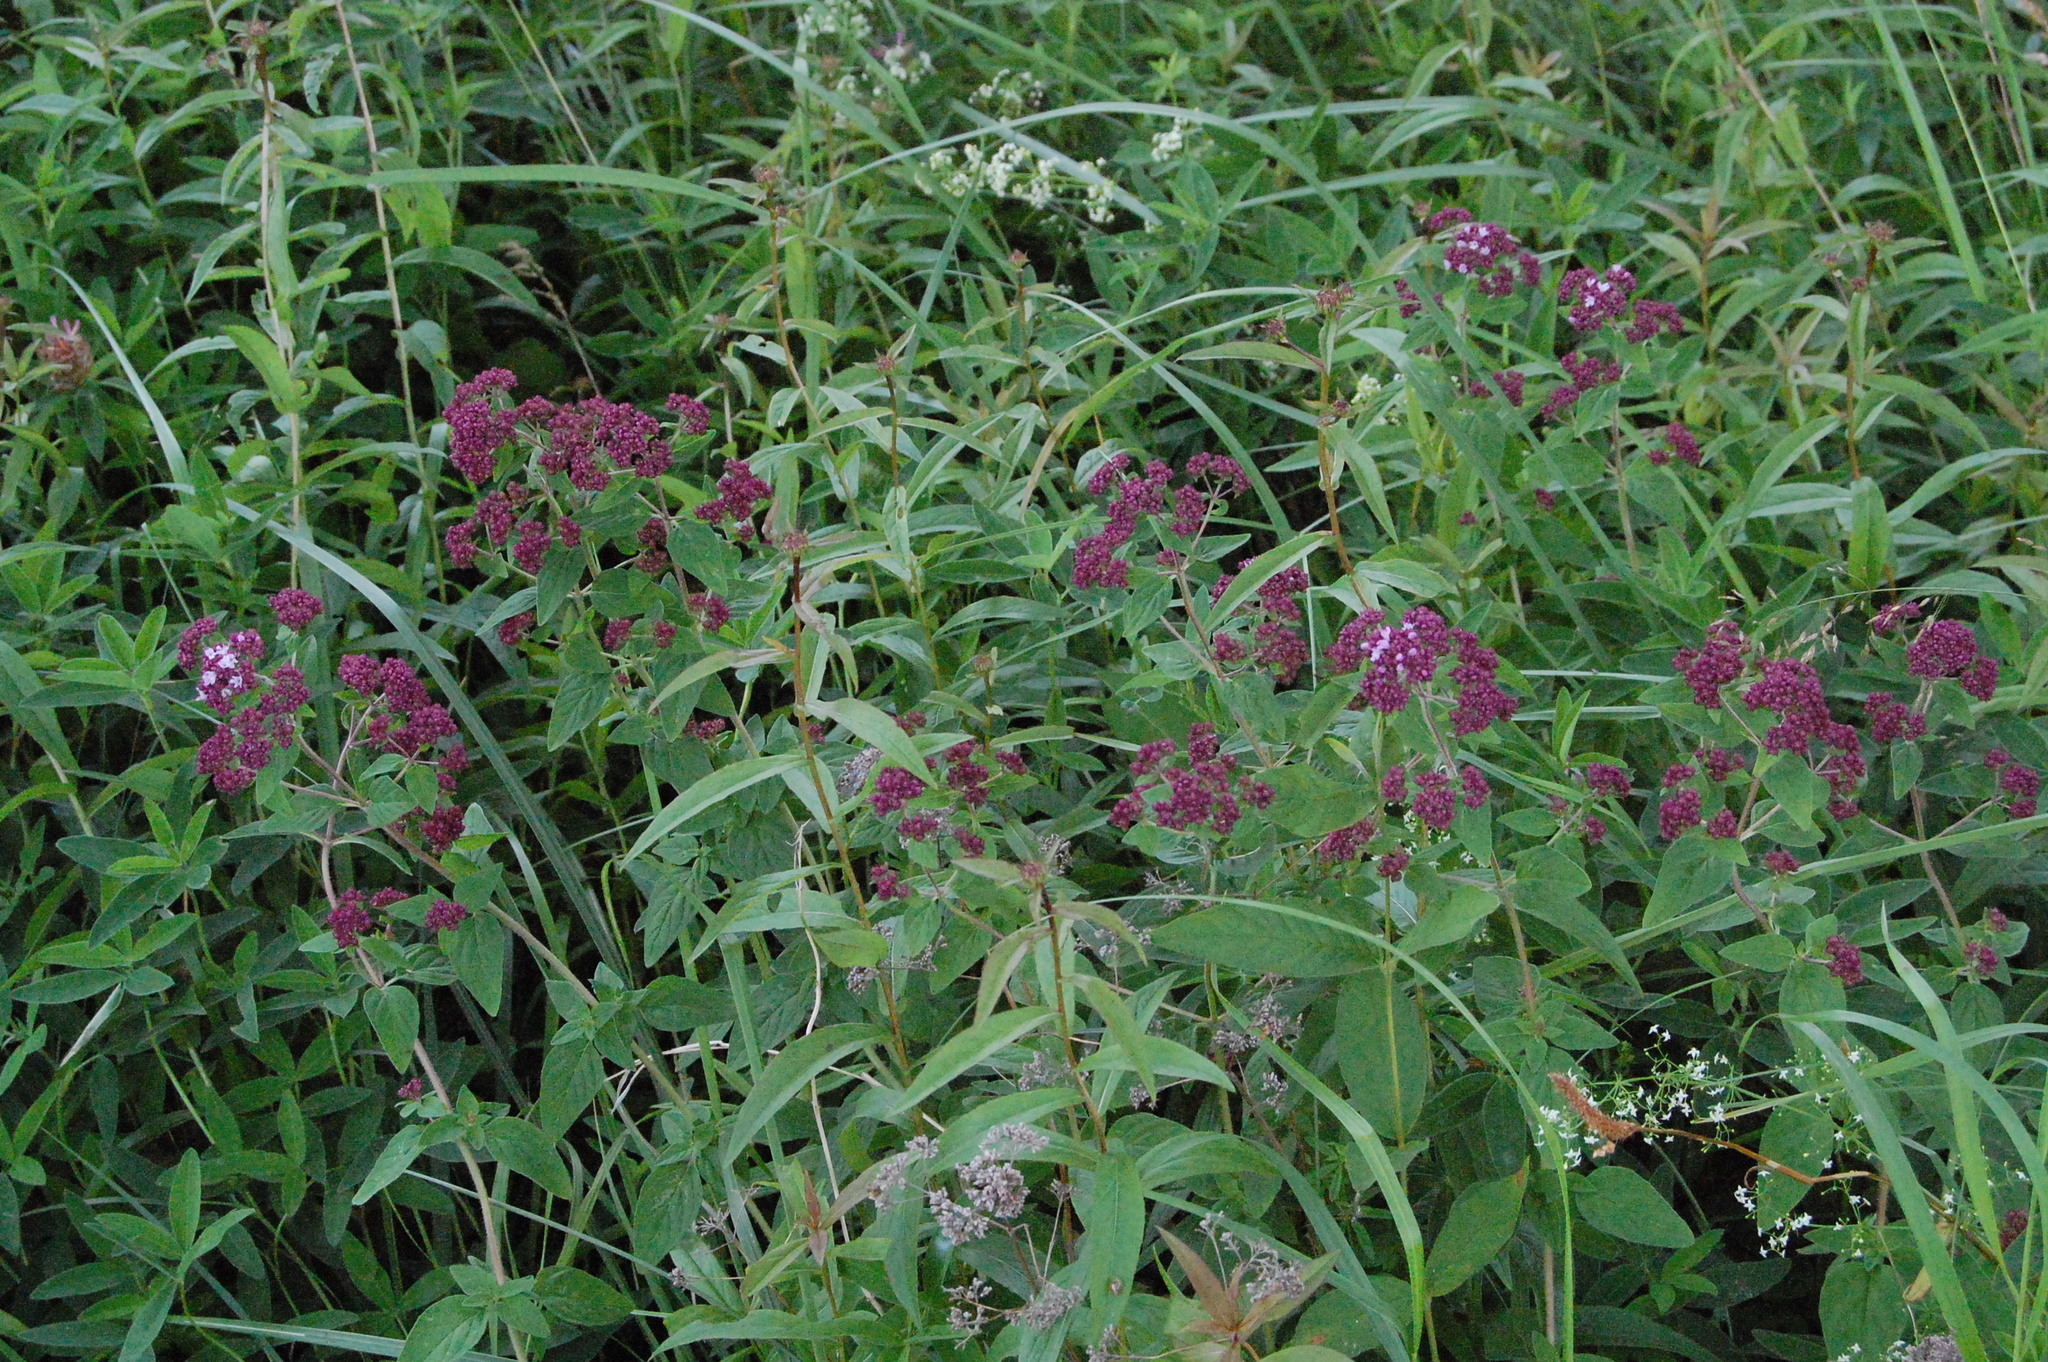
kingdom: Plantae
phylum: Tracheophyta
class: Magnoliopsida
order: Lamiales
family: Lamiaceae
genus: Origanum
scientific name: Origanum vulgare
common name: Wild marjoram
